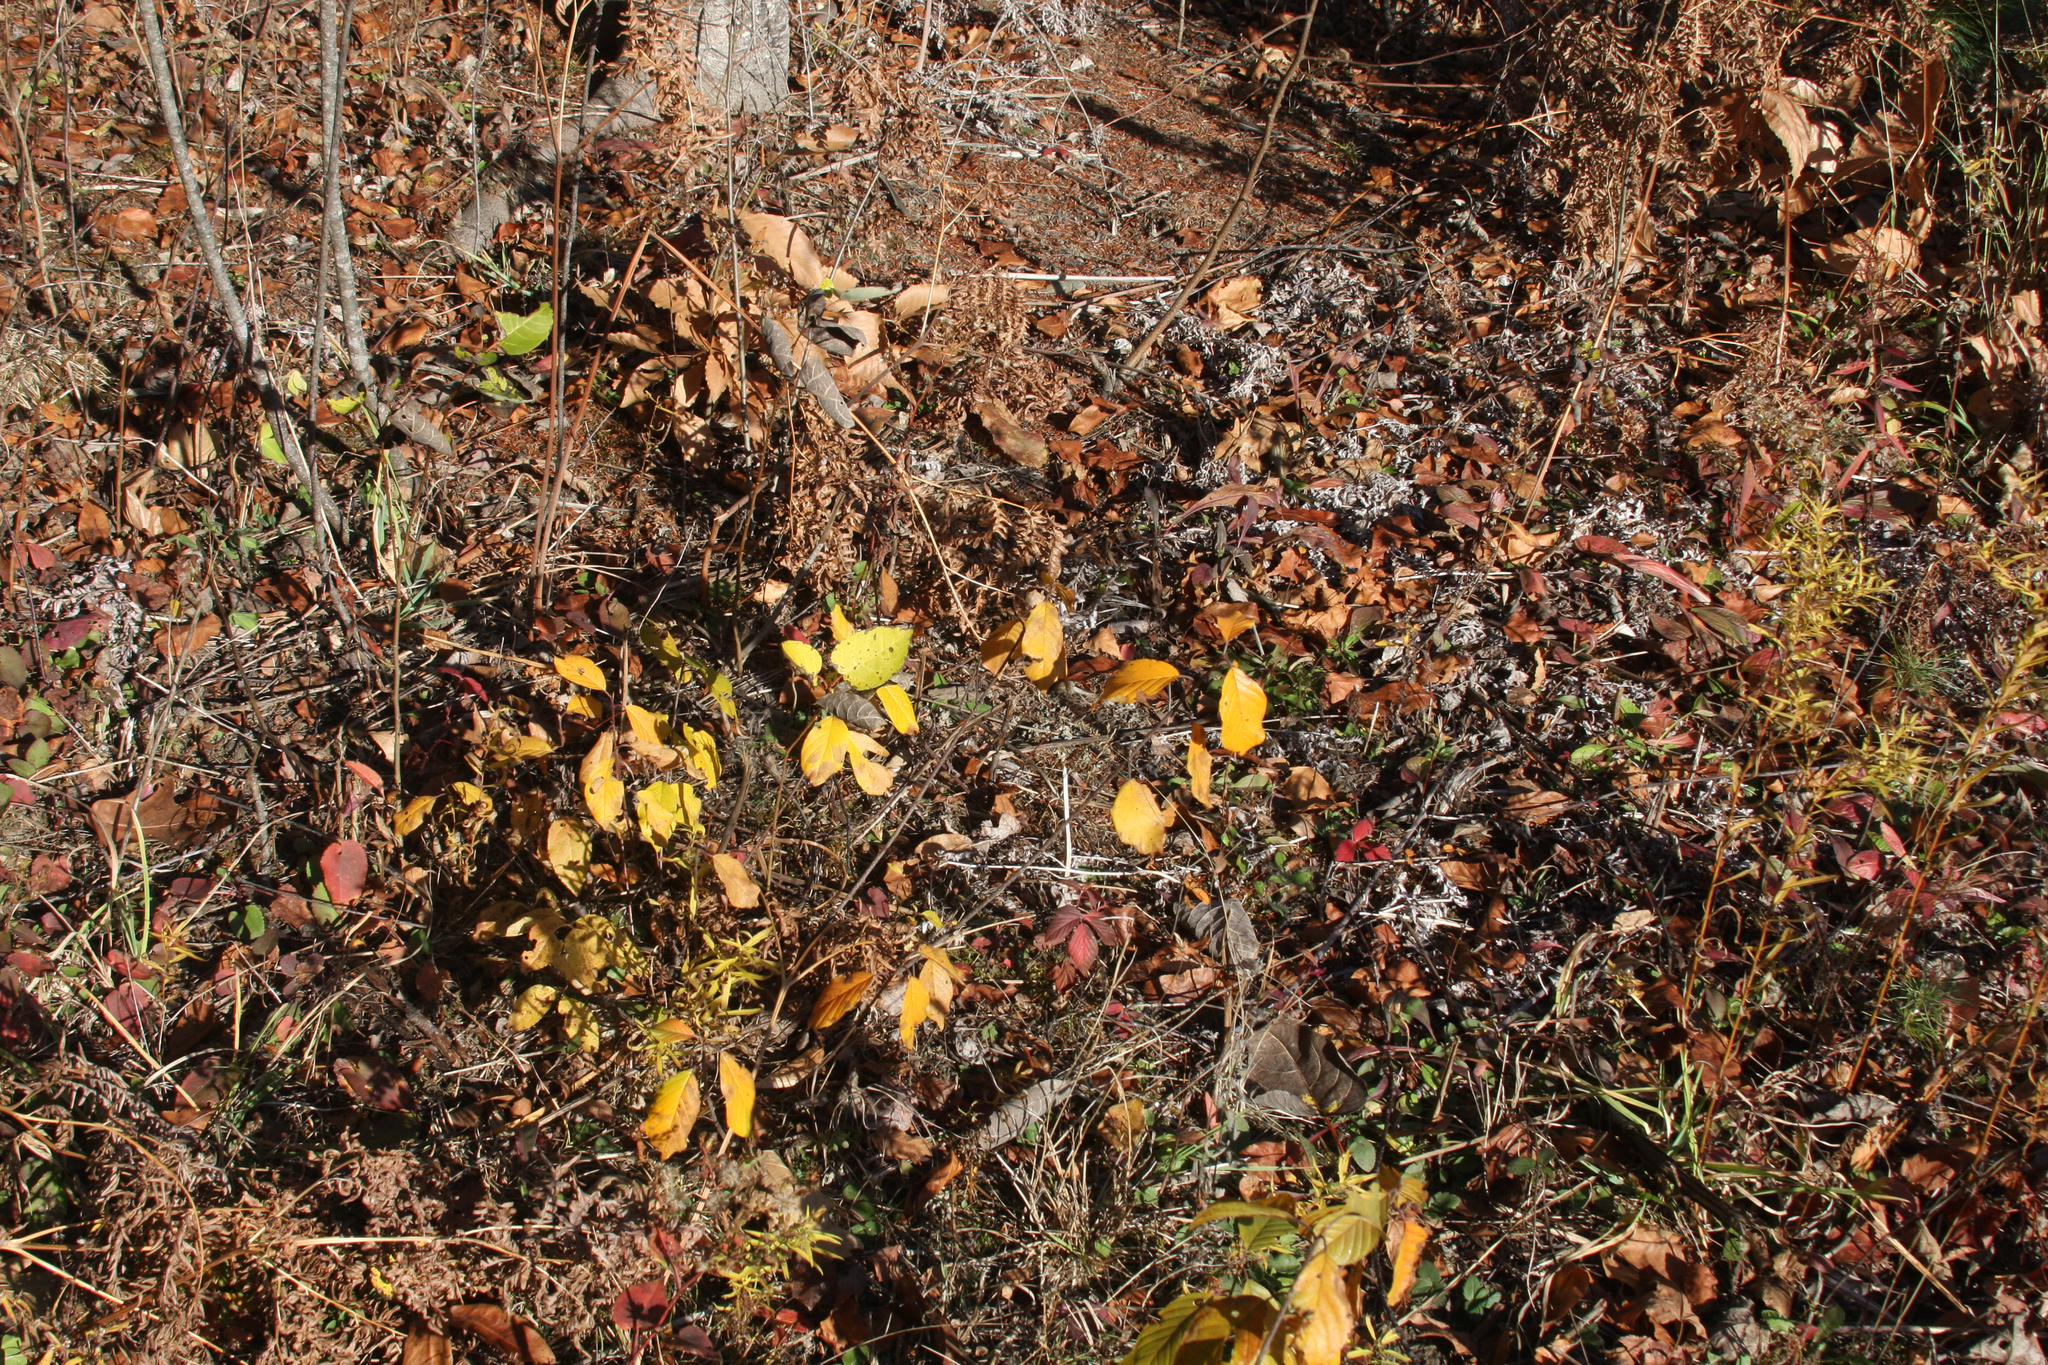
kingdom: Plantae
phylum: Tracheophyta
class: Magnoliopsida
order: Rosales
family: Rhamnaceae
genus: Frangula
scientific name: Frangula alnus
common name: Alder buckthorn
